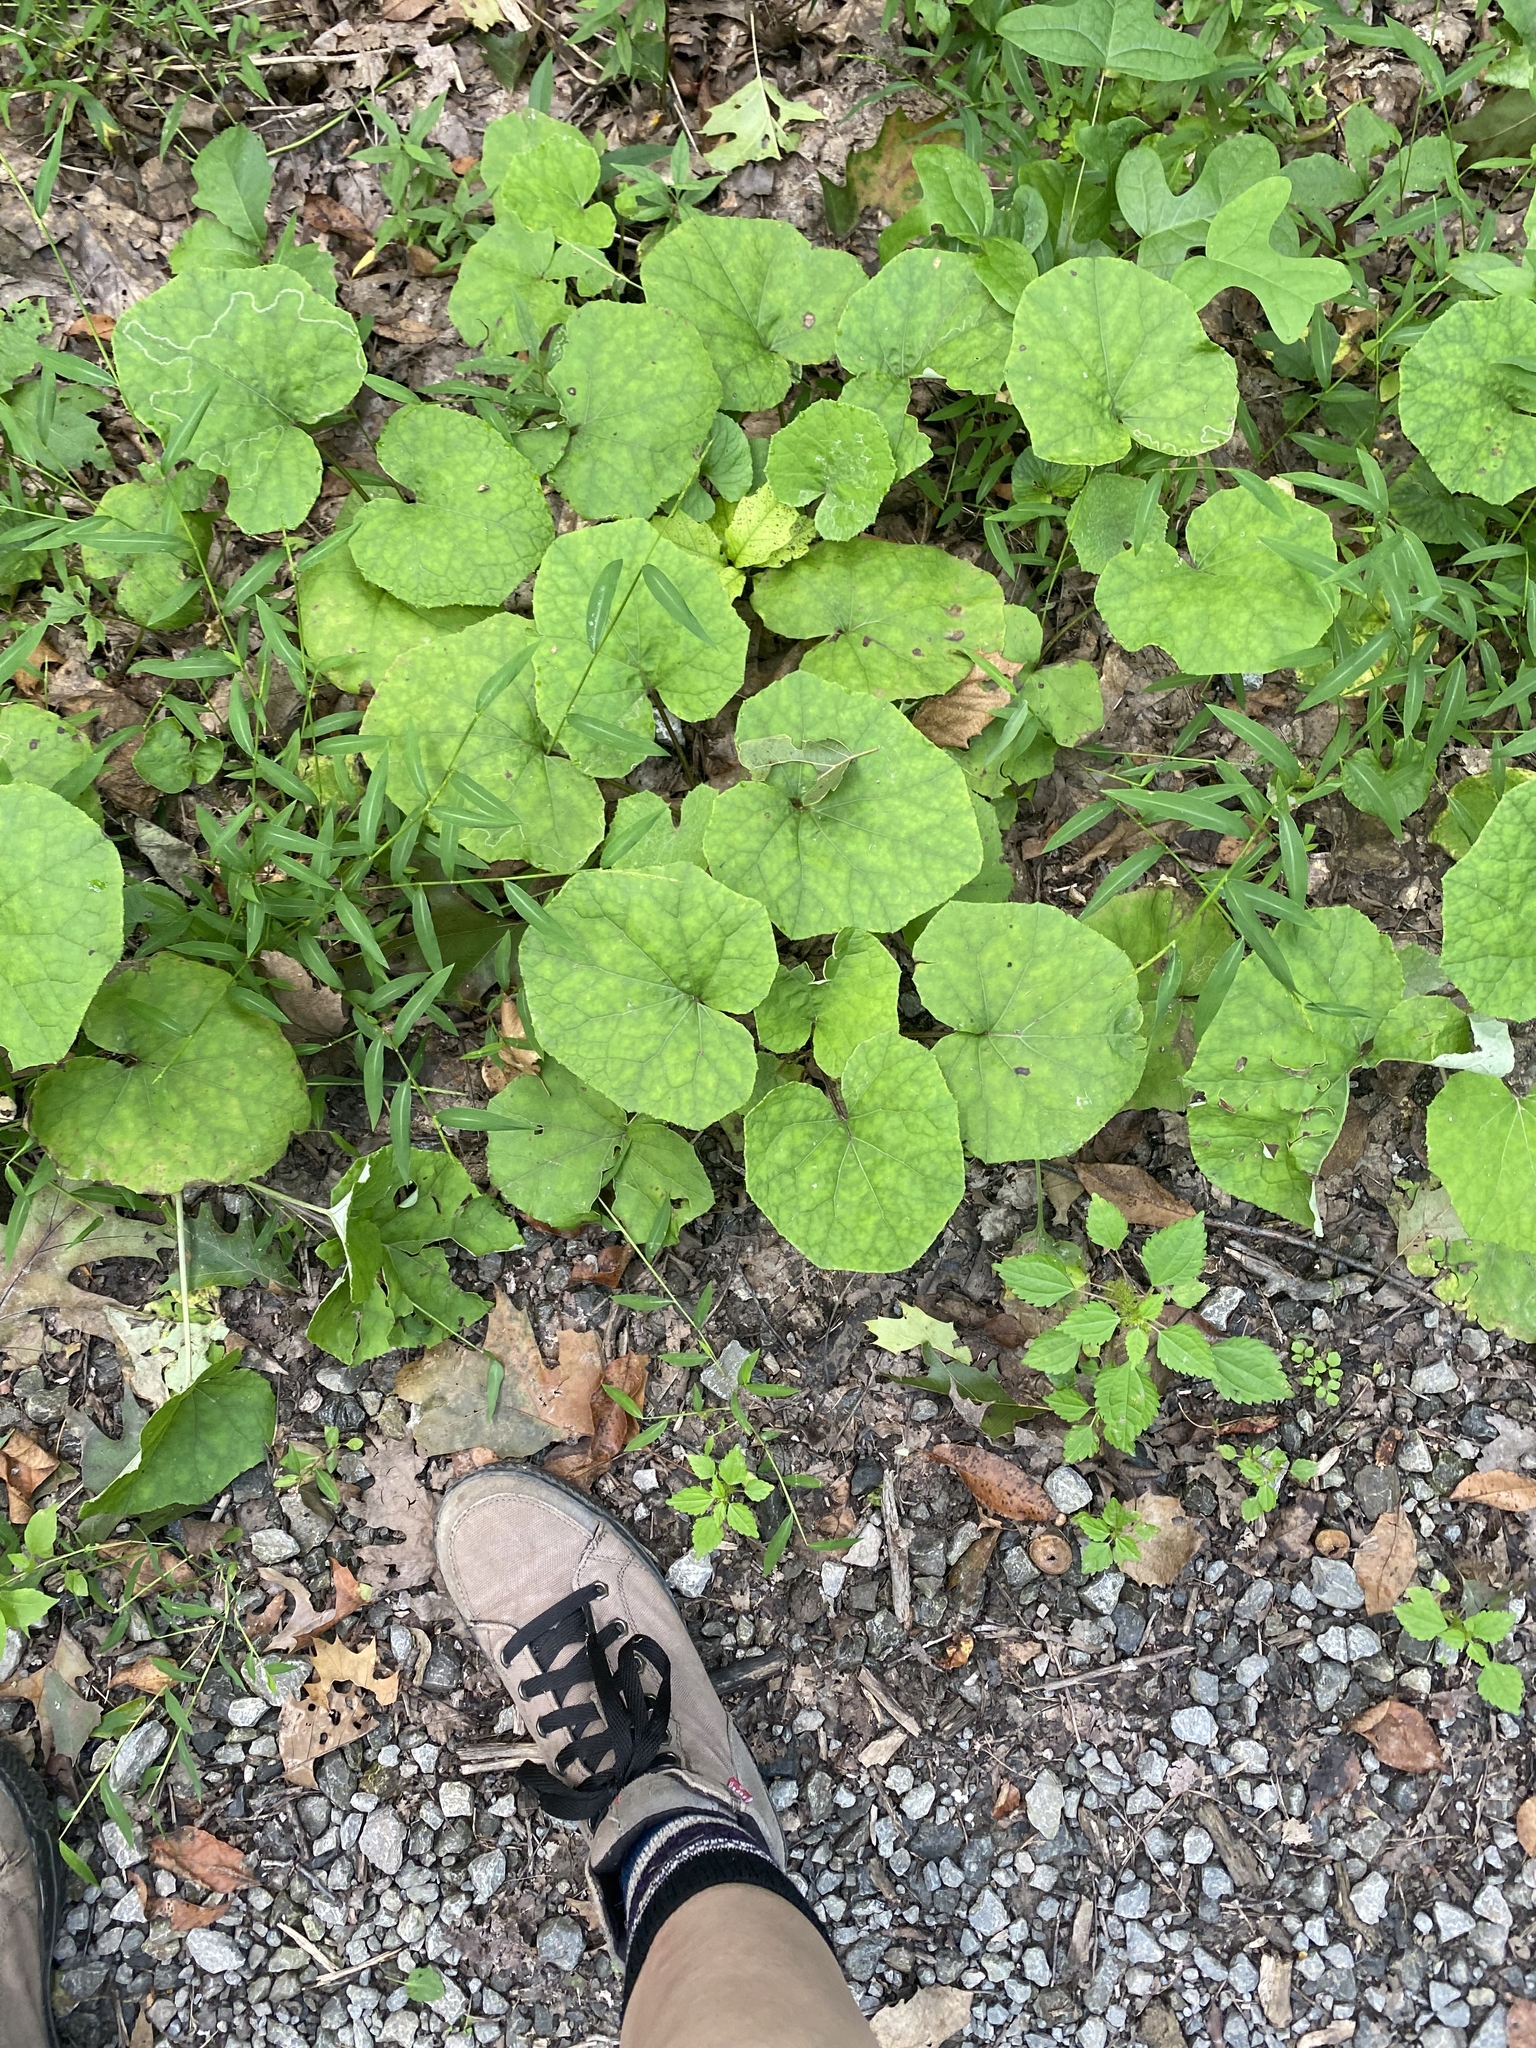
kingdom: Plantae
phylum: Tracheophyta
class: Magnoliopsida
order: Asterales
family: Asteraceae
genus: Tussilago
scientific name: Tussilago farfara
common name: Coltsfoot
